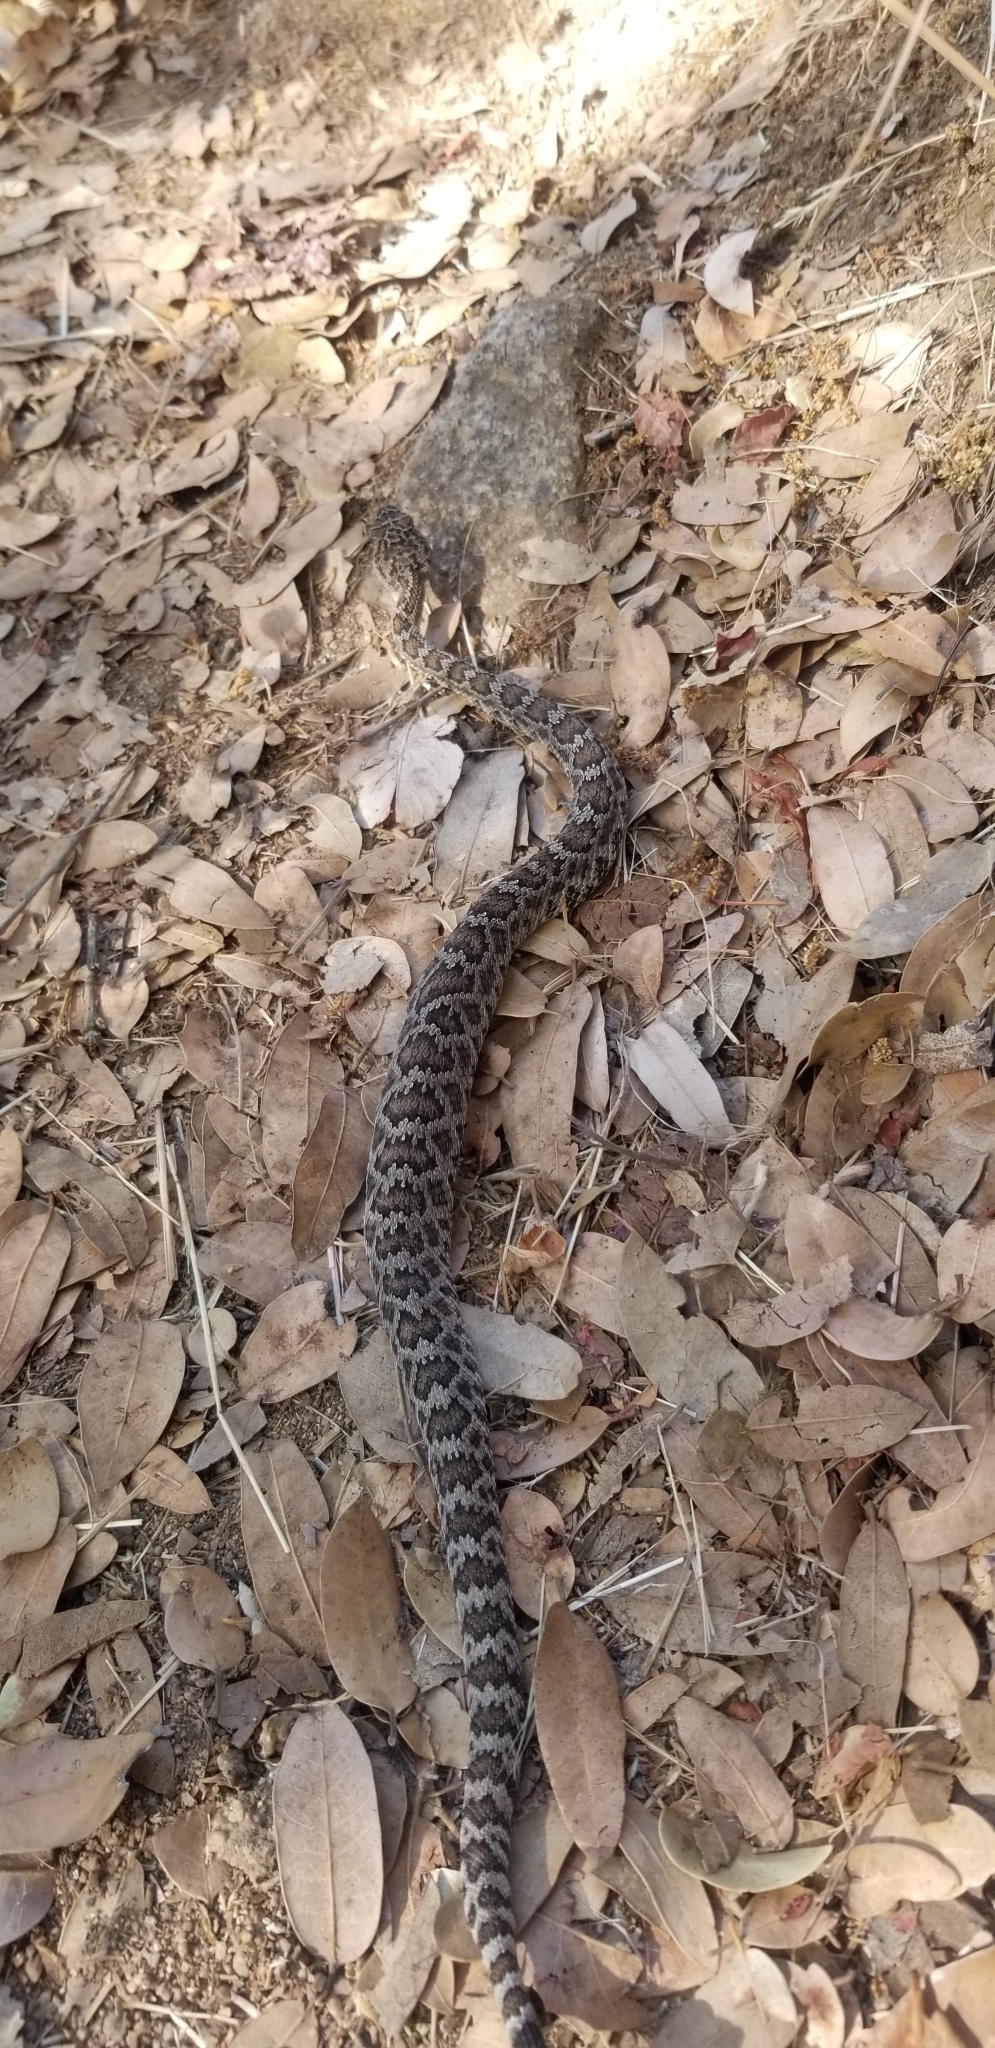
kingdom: Animalia
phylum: Chordata
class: Squamata
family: Viperidae
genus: Crotalus
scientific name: Crotalus oreganus
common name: Abyssus
